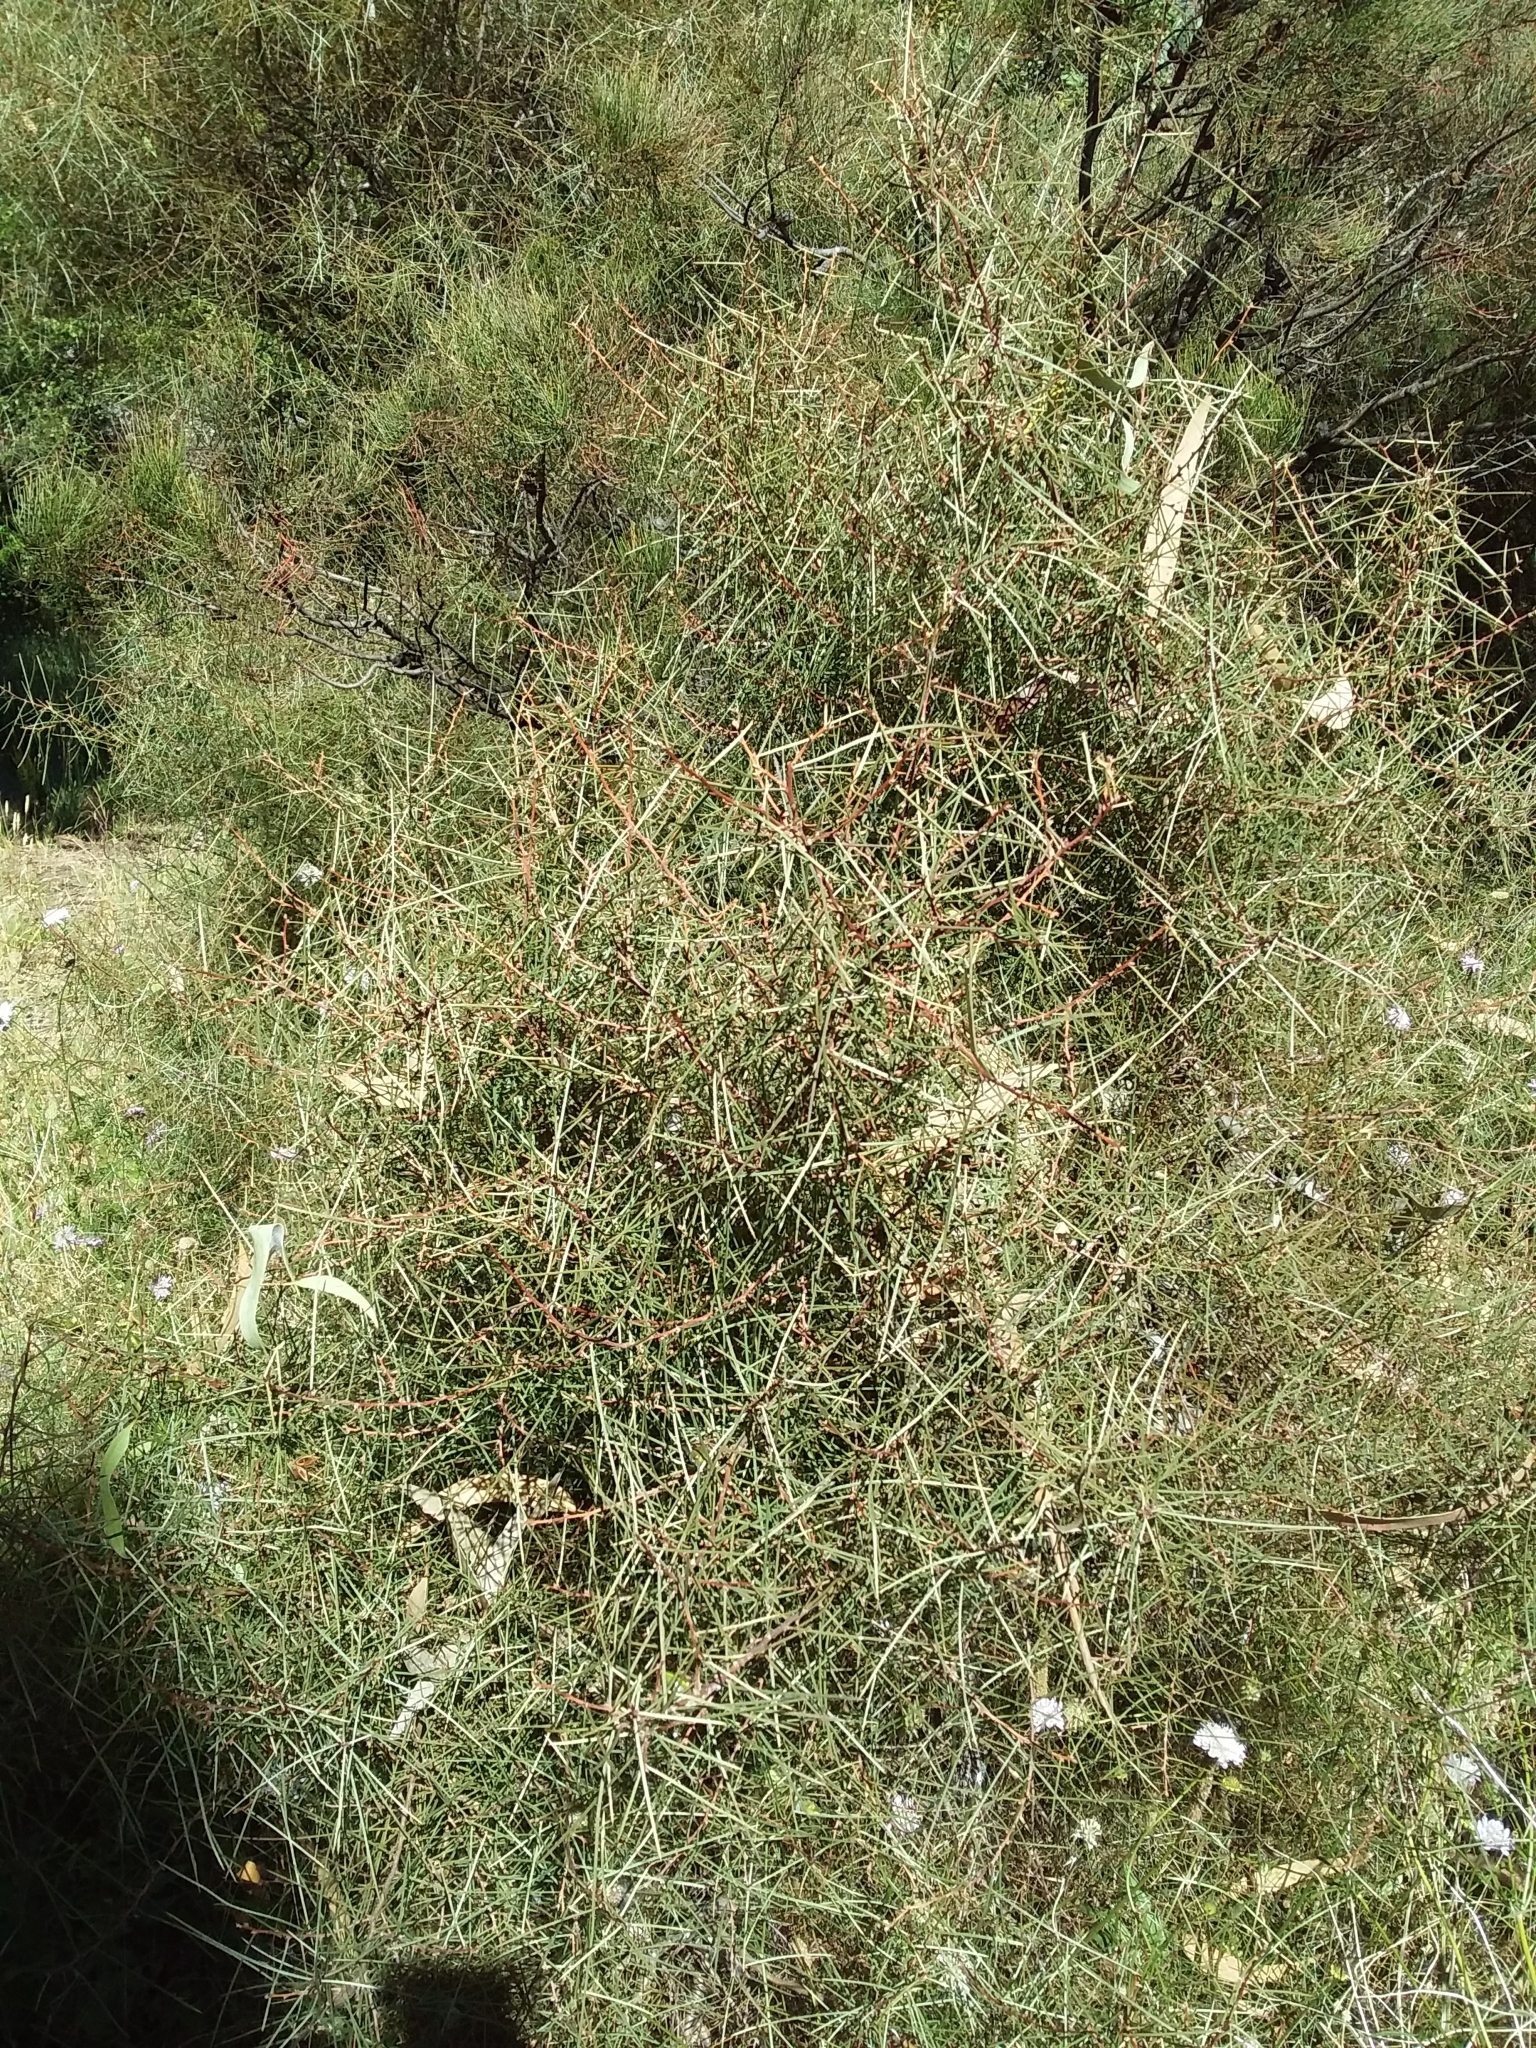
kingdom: Plantae
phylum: Tracheophyta
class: Magnoliopsida
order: Proteales
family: Proteaceae
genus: Hakea
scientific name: Hakea carinata
